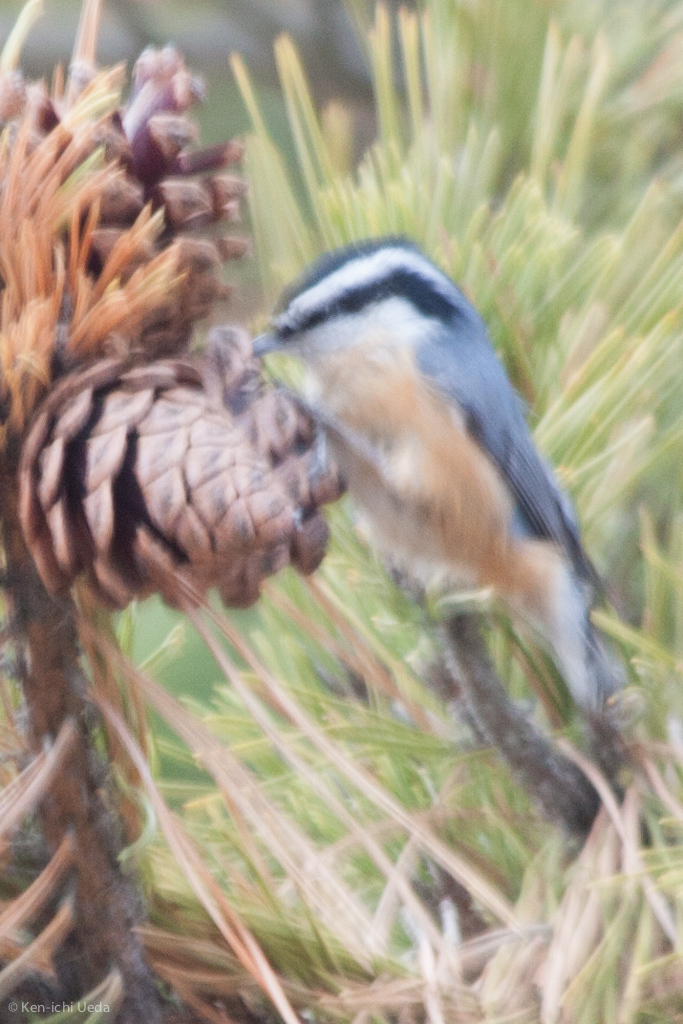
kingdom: Animalia
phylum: Chordata
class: Aves
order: Passeriformes
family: Sittidae
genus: Sitta
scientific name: Sitta canadensis
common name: Red-breasted nuthatch
